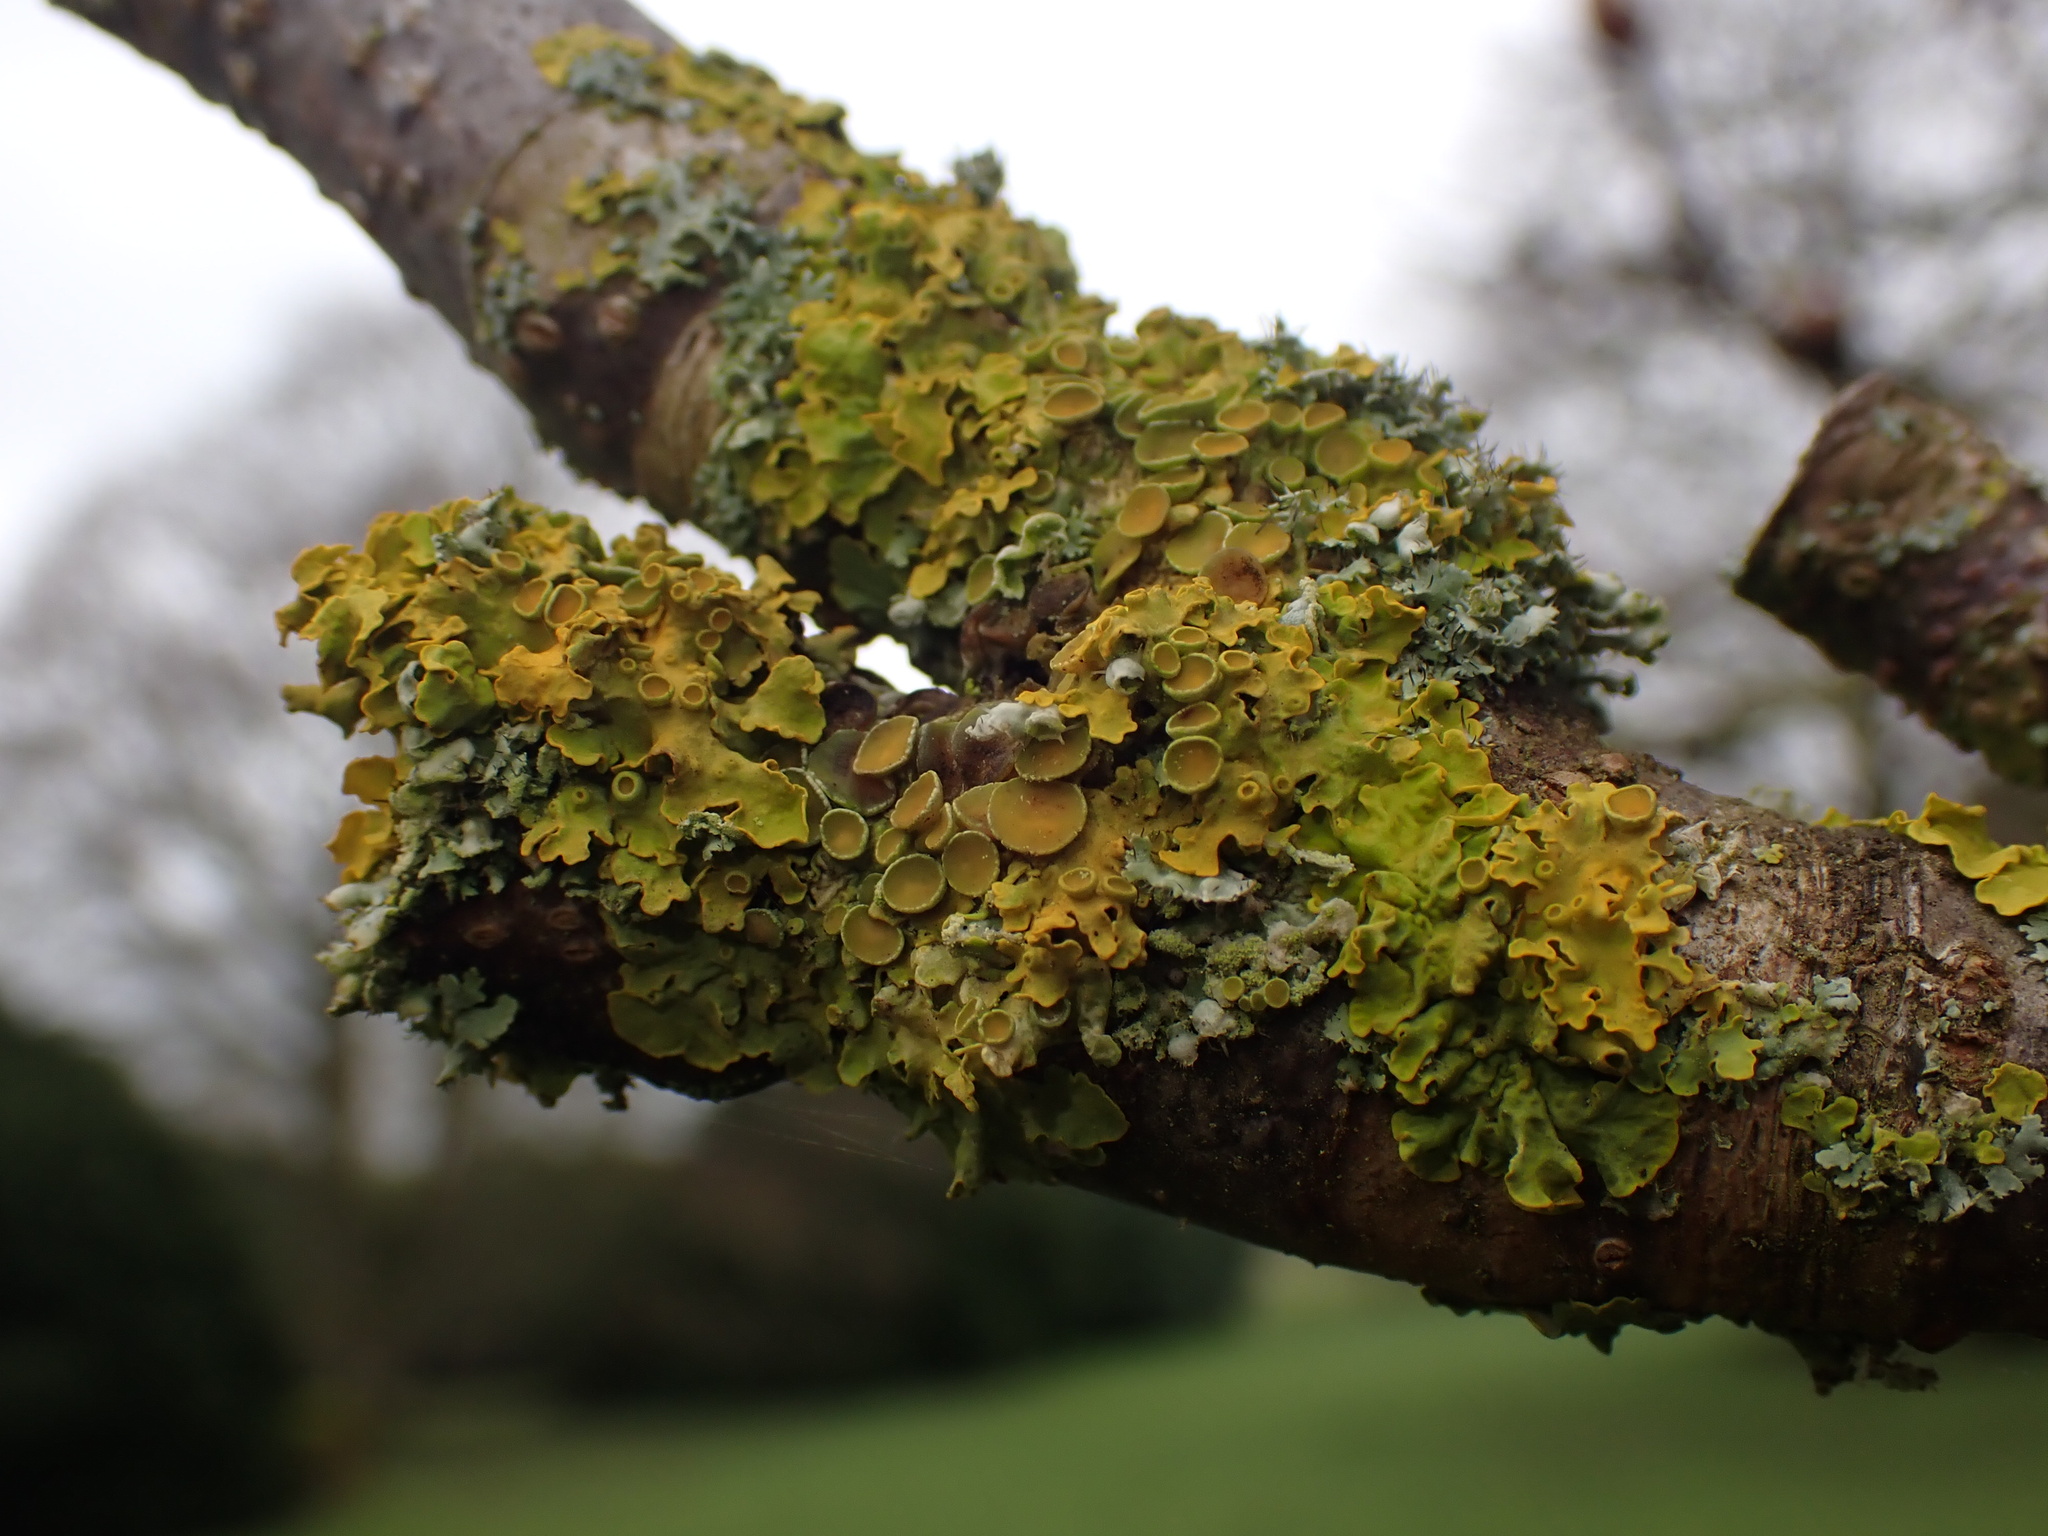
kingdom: Fungi
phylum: Ascomycota
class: Lecanoromycetes
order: Teloschistales
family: Teloschistaceae
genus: Xanthoria
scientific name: Xanthoria parietina
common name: Common orange lichen
